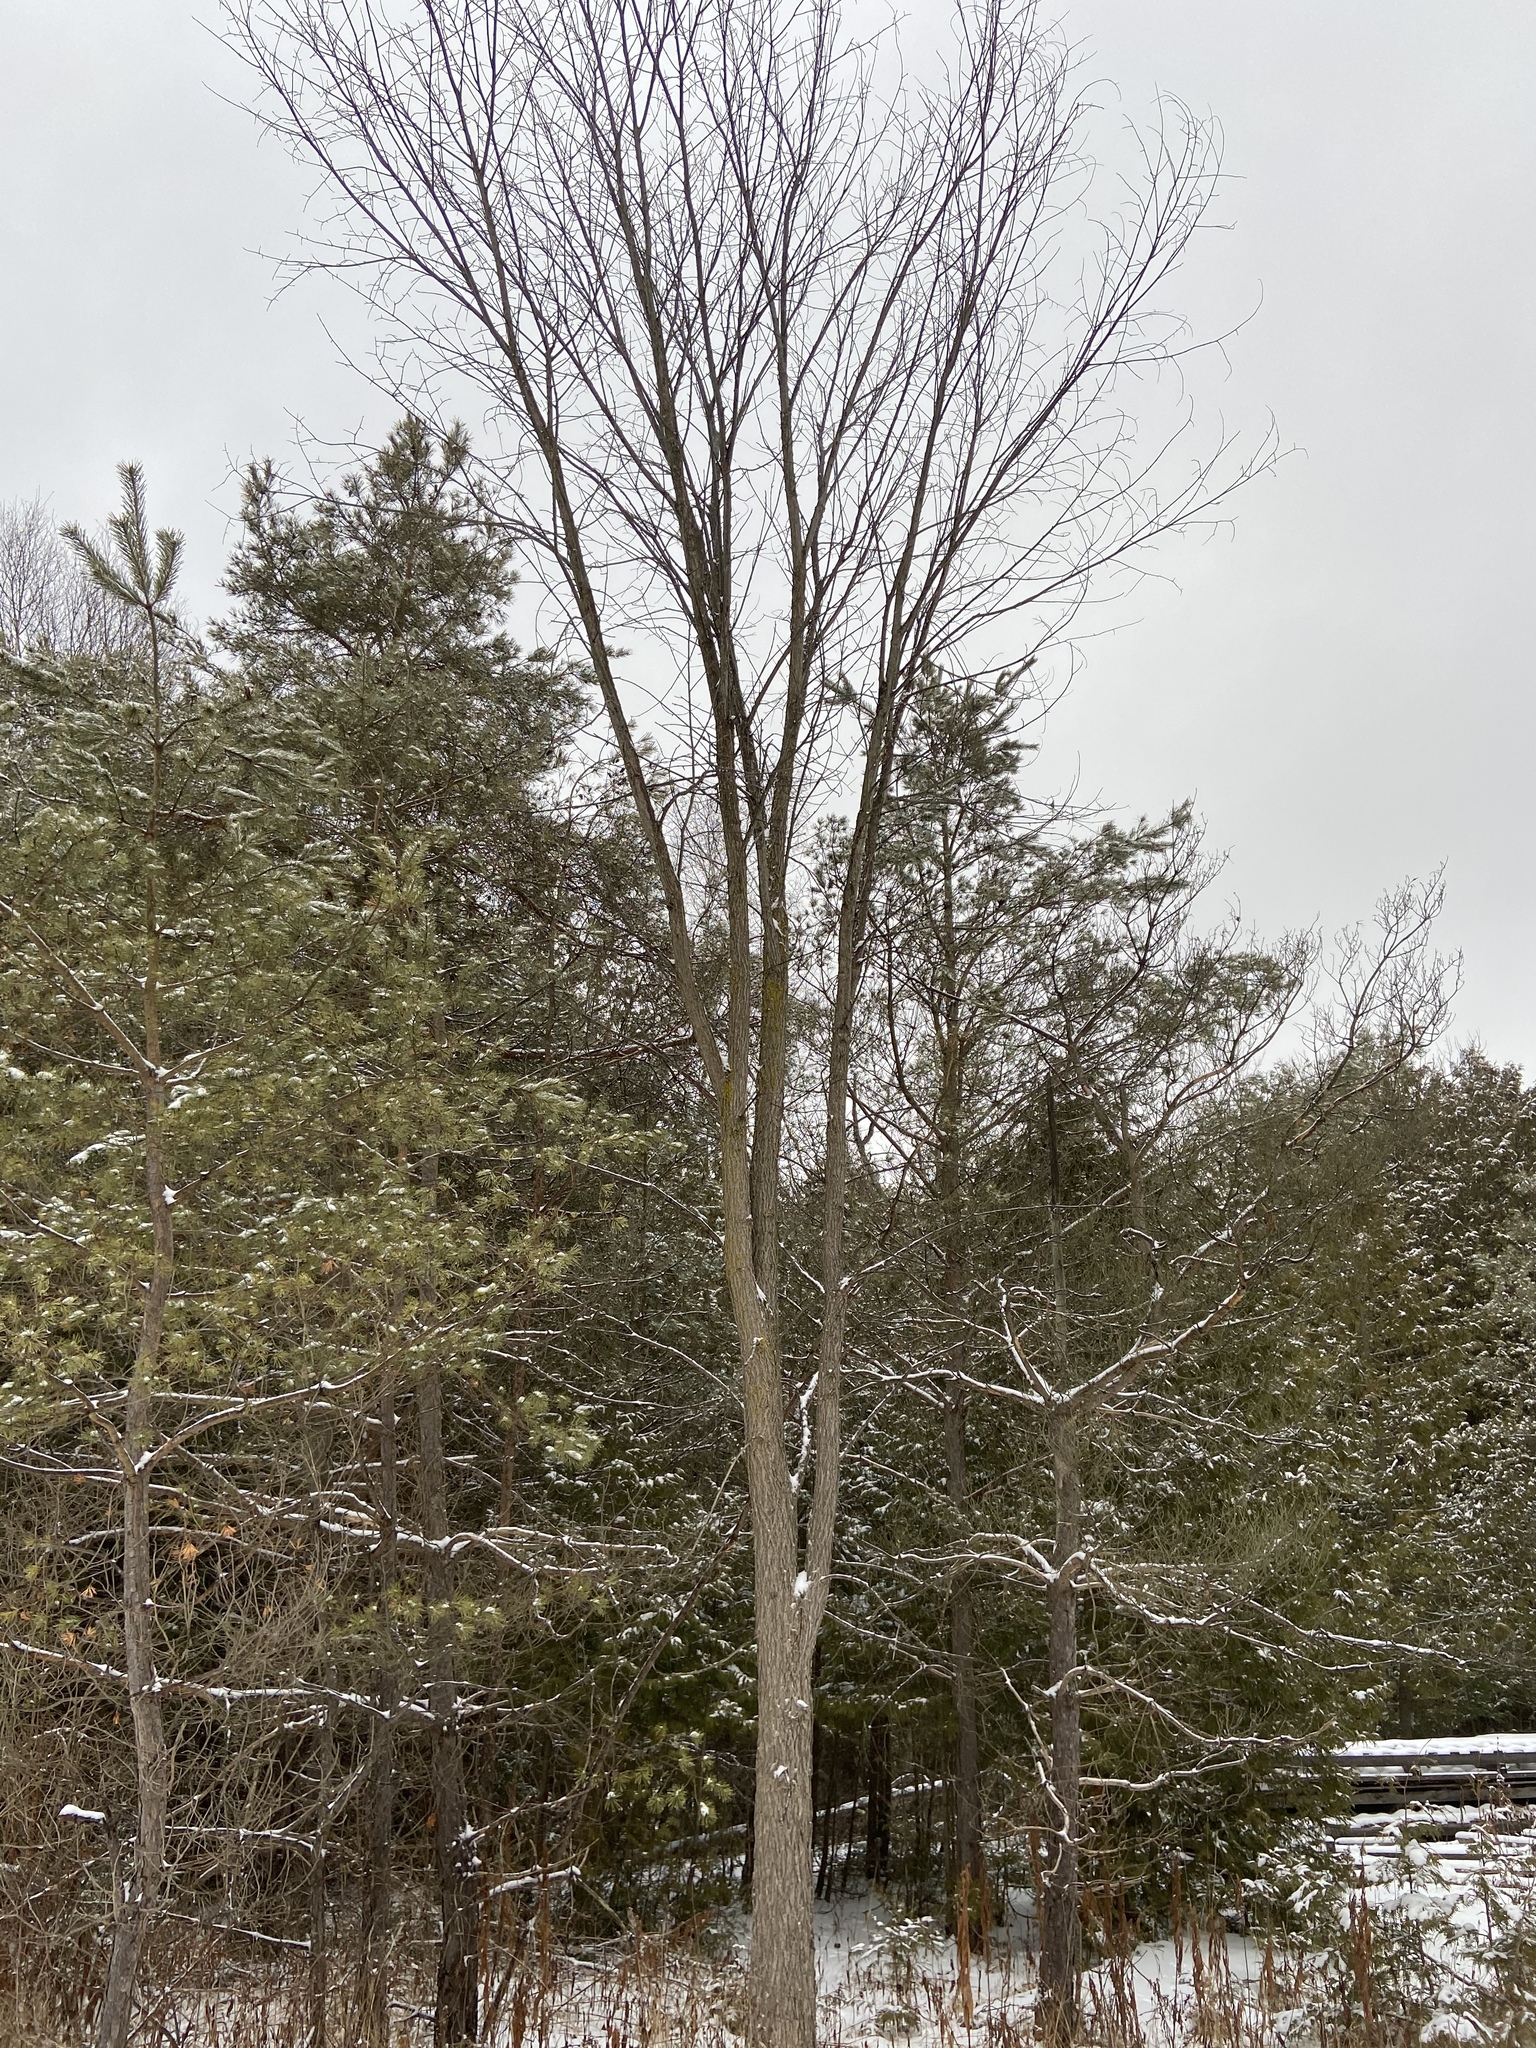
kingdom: Plantae
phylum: Tracheophyta
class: Magnoliopsida
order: Rosales
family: Ulmaceae
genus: Ulmus
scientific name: Ulmus americana
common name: American elm
